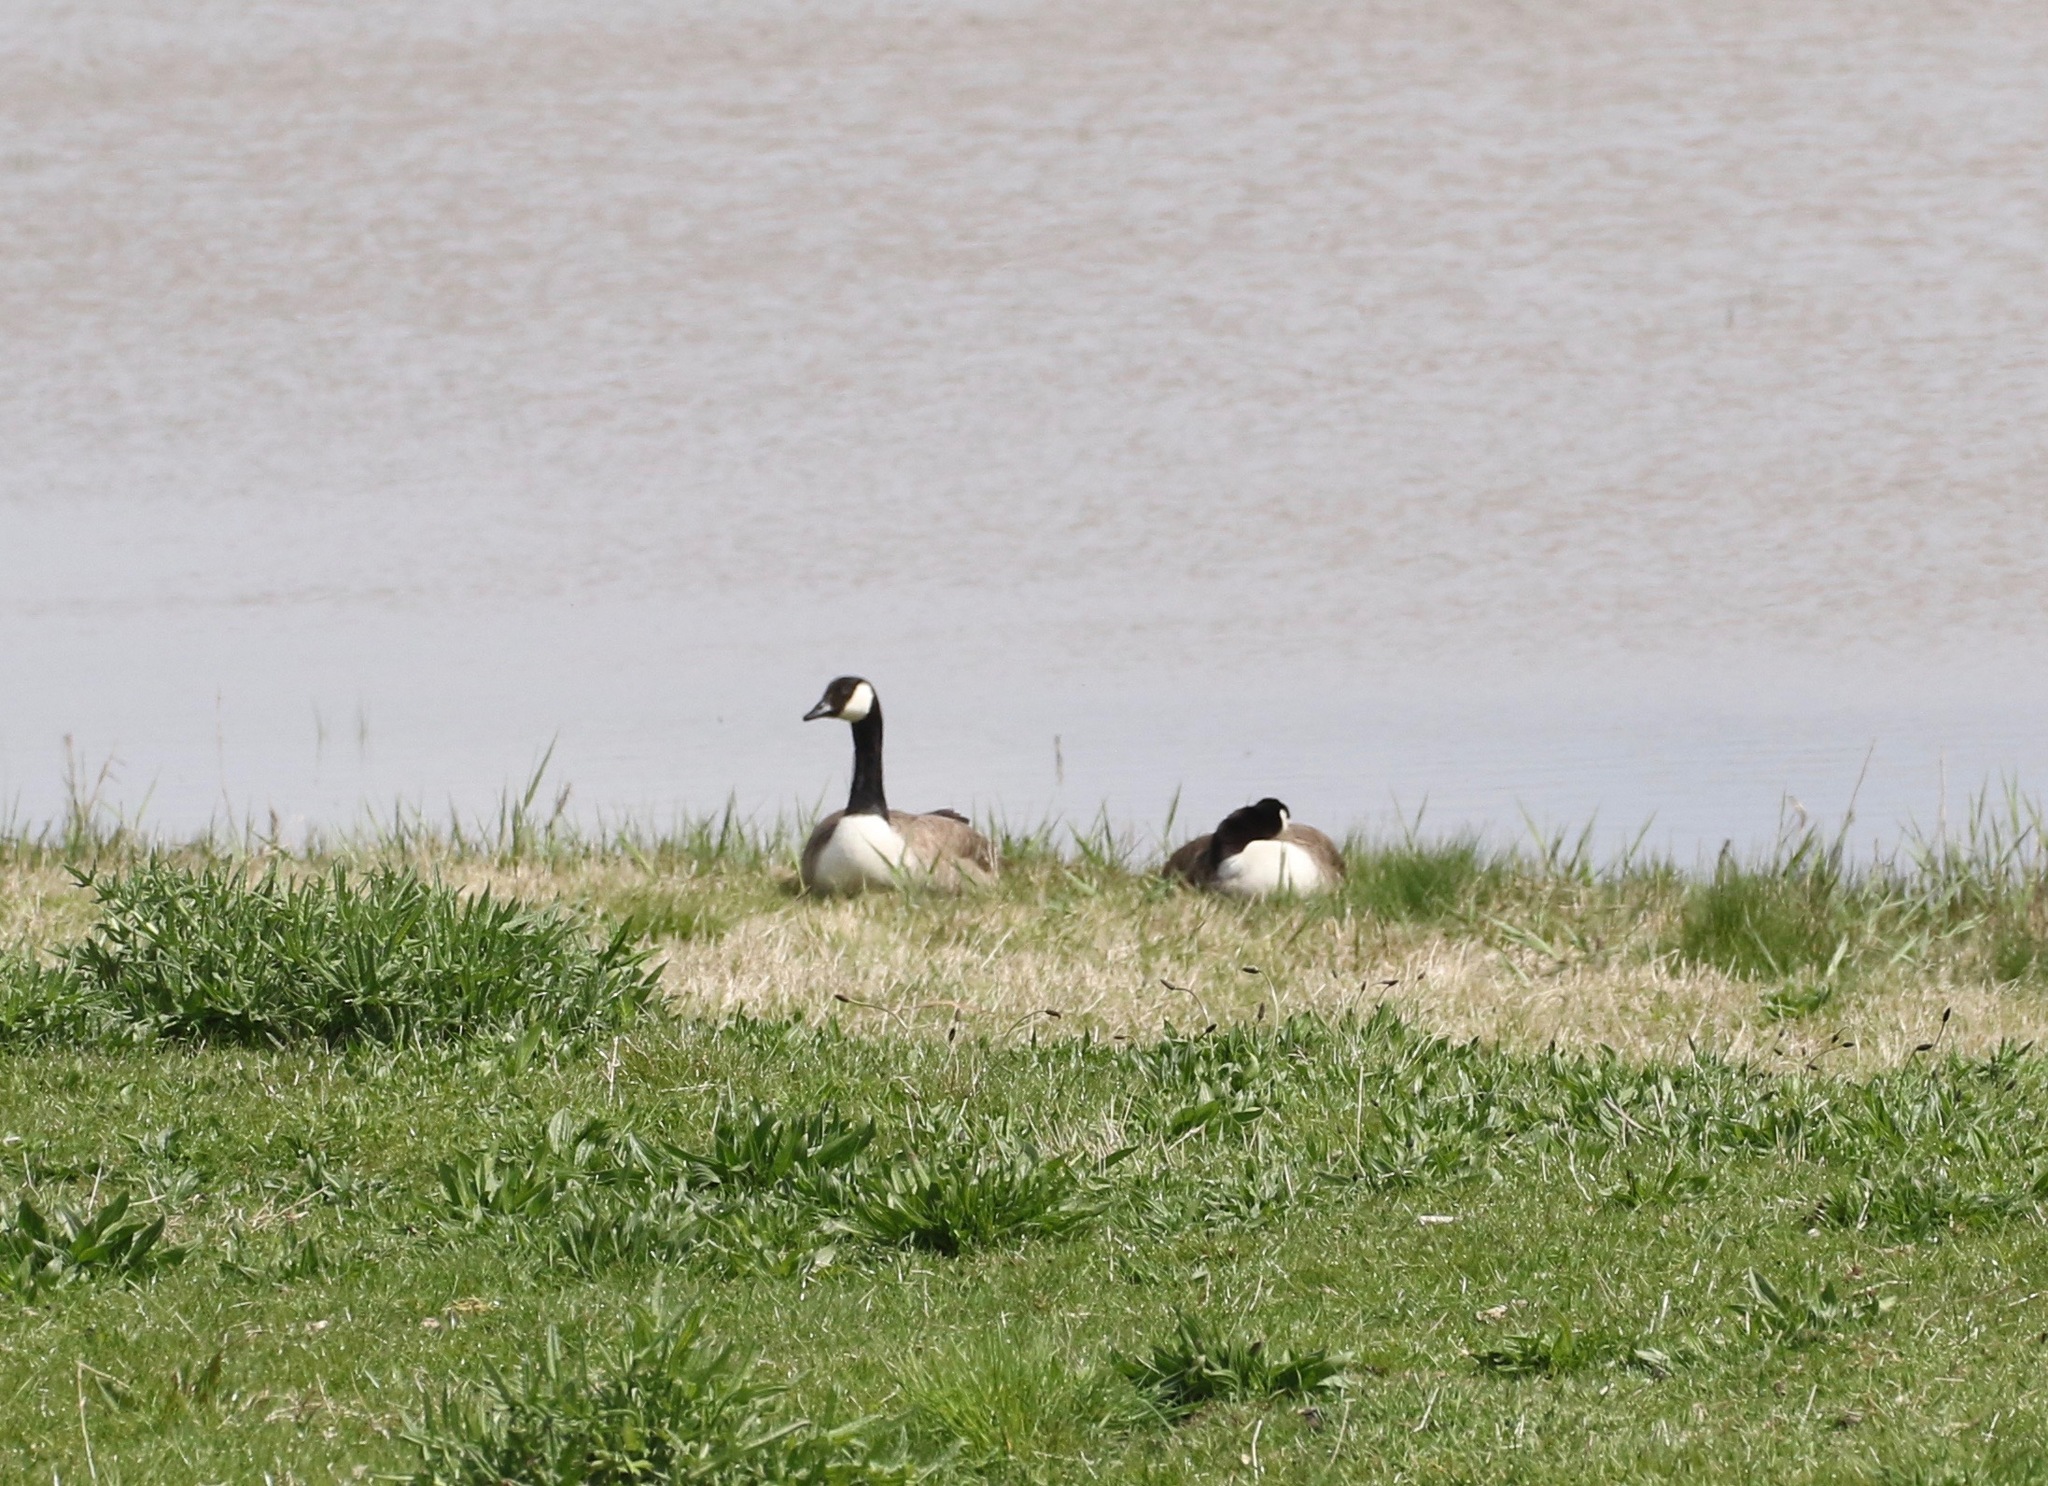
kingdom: Animalia
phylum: Chordata
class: Aves
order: Anseriformes
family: Anatidae
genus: Branta
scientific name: Branta canadensis
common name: Canada goose
